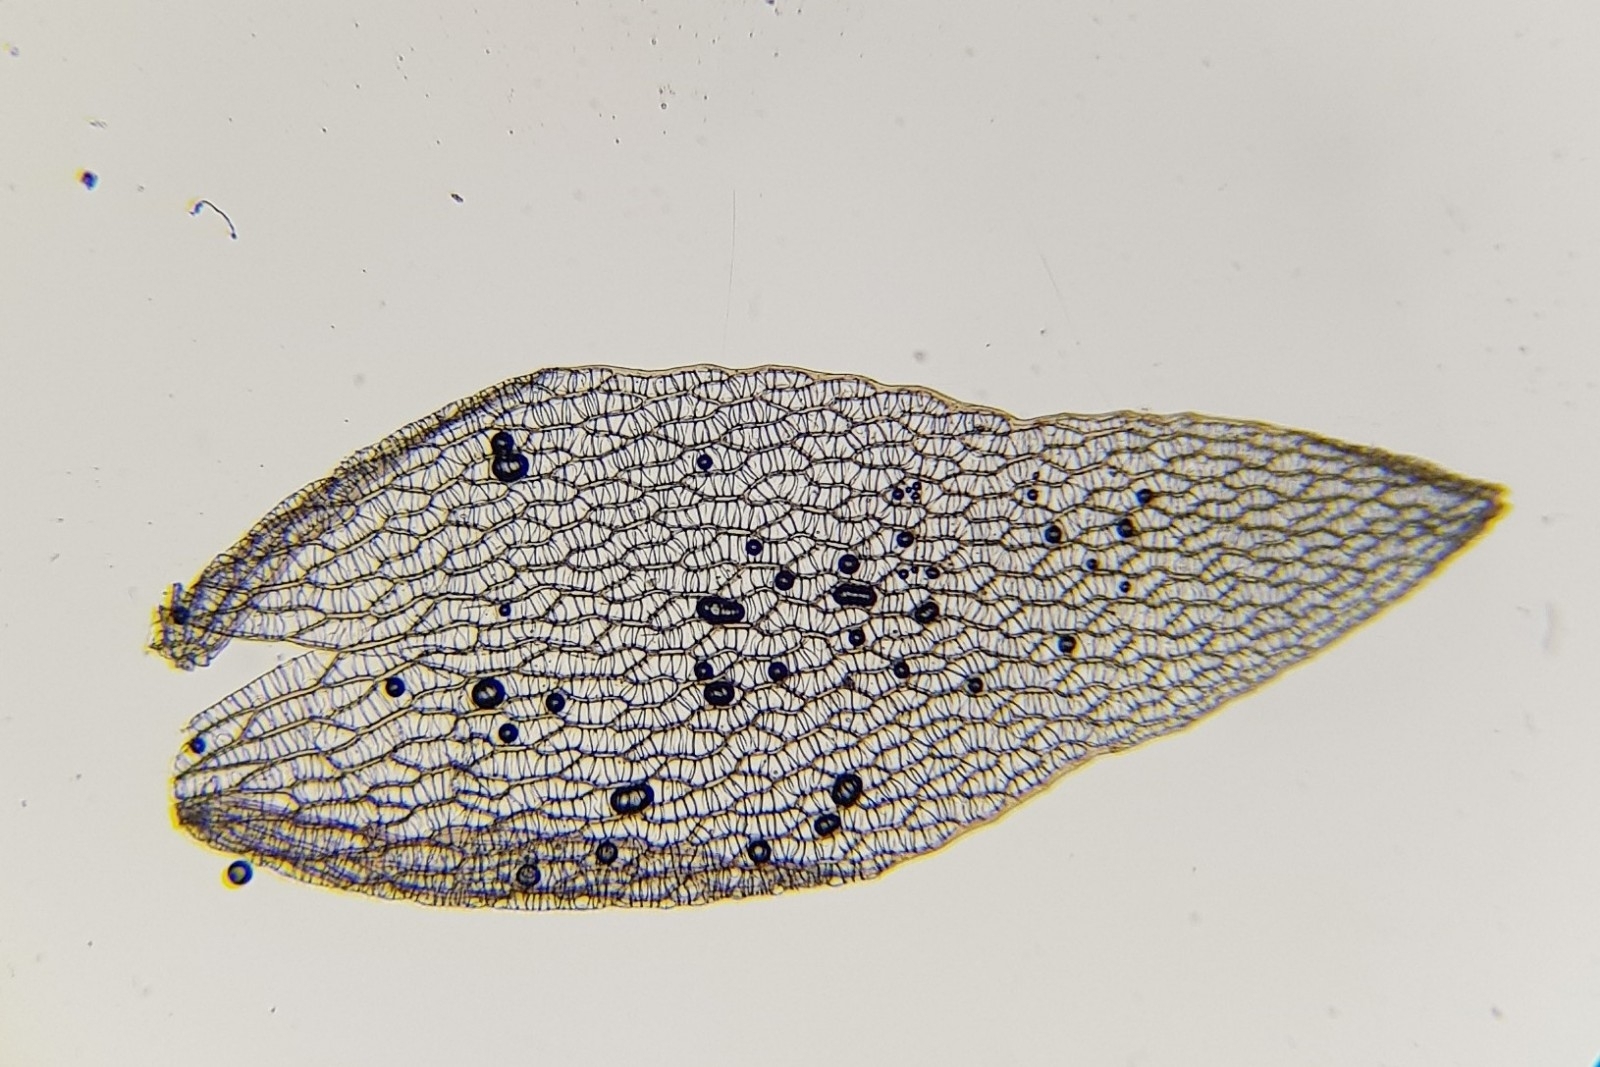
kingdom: Plantae
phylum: Bryophyta
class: Sphagnopsida
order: Sphagnales
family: Sphagnaceae
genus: Sphagnum
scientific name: Sphagnum subnitens
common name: Lustrous bog-moss
